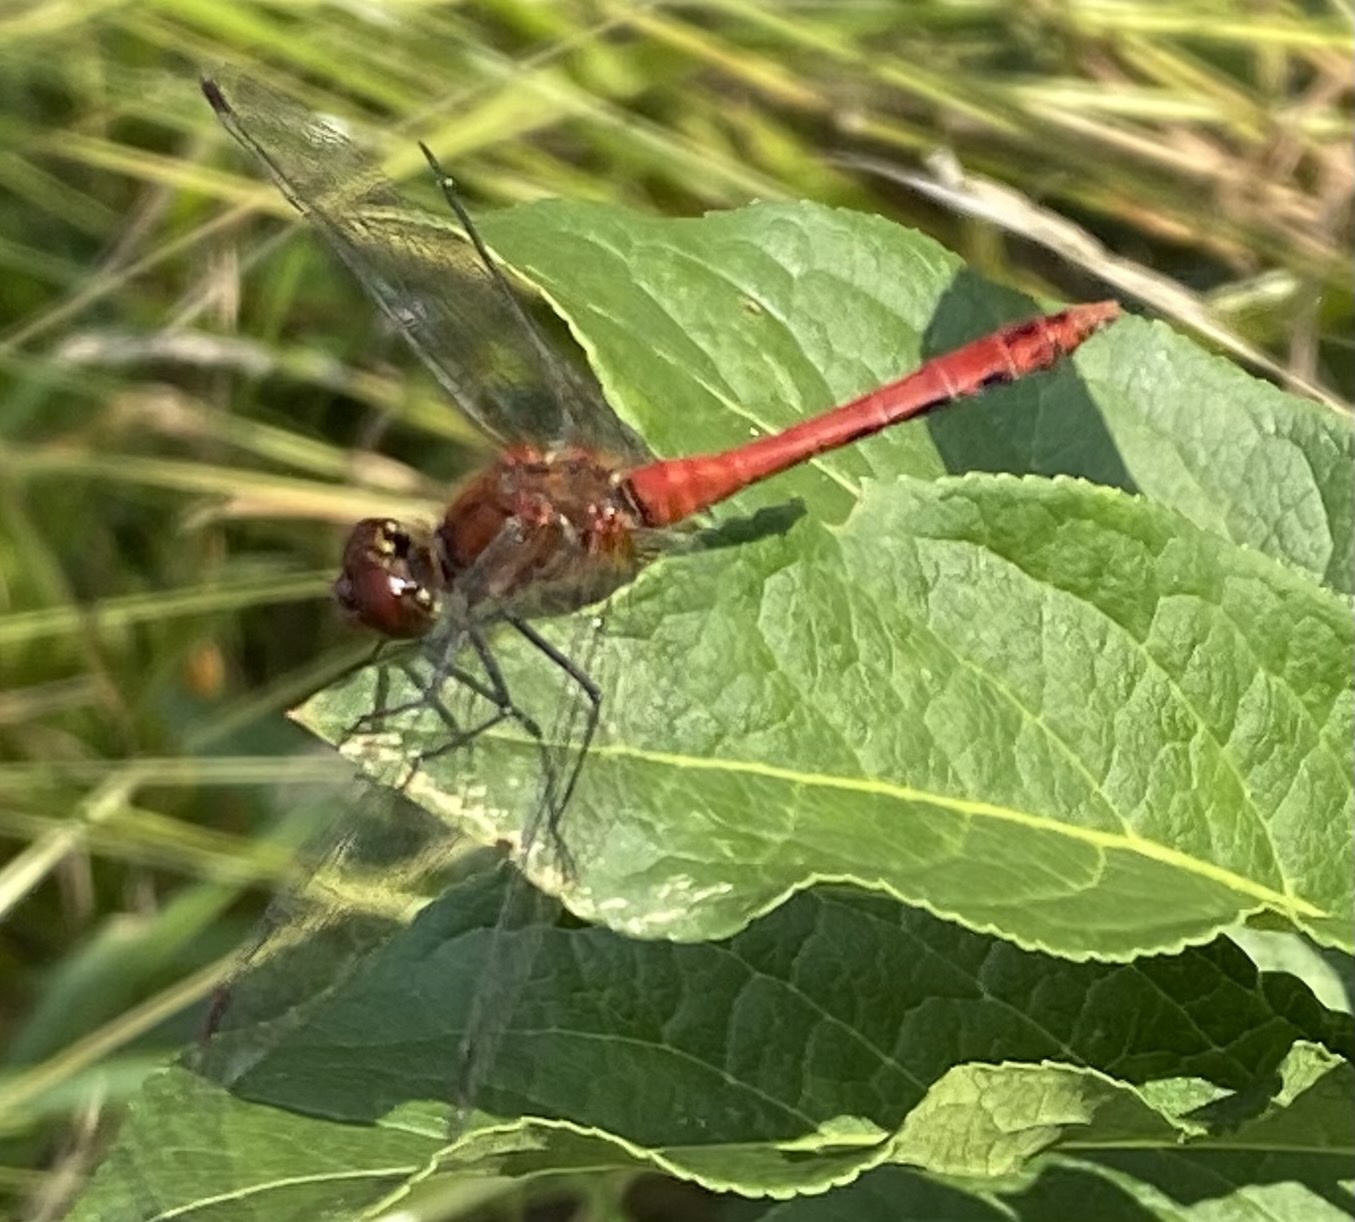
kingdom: Animalia
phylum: Arthropoda
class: Insecta
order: Odonata
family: Libellulidae
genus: Sympetrum
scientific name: Sympetrum sanguineum
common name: Ruddy darter
